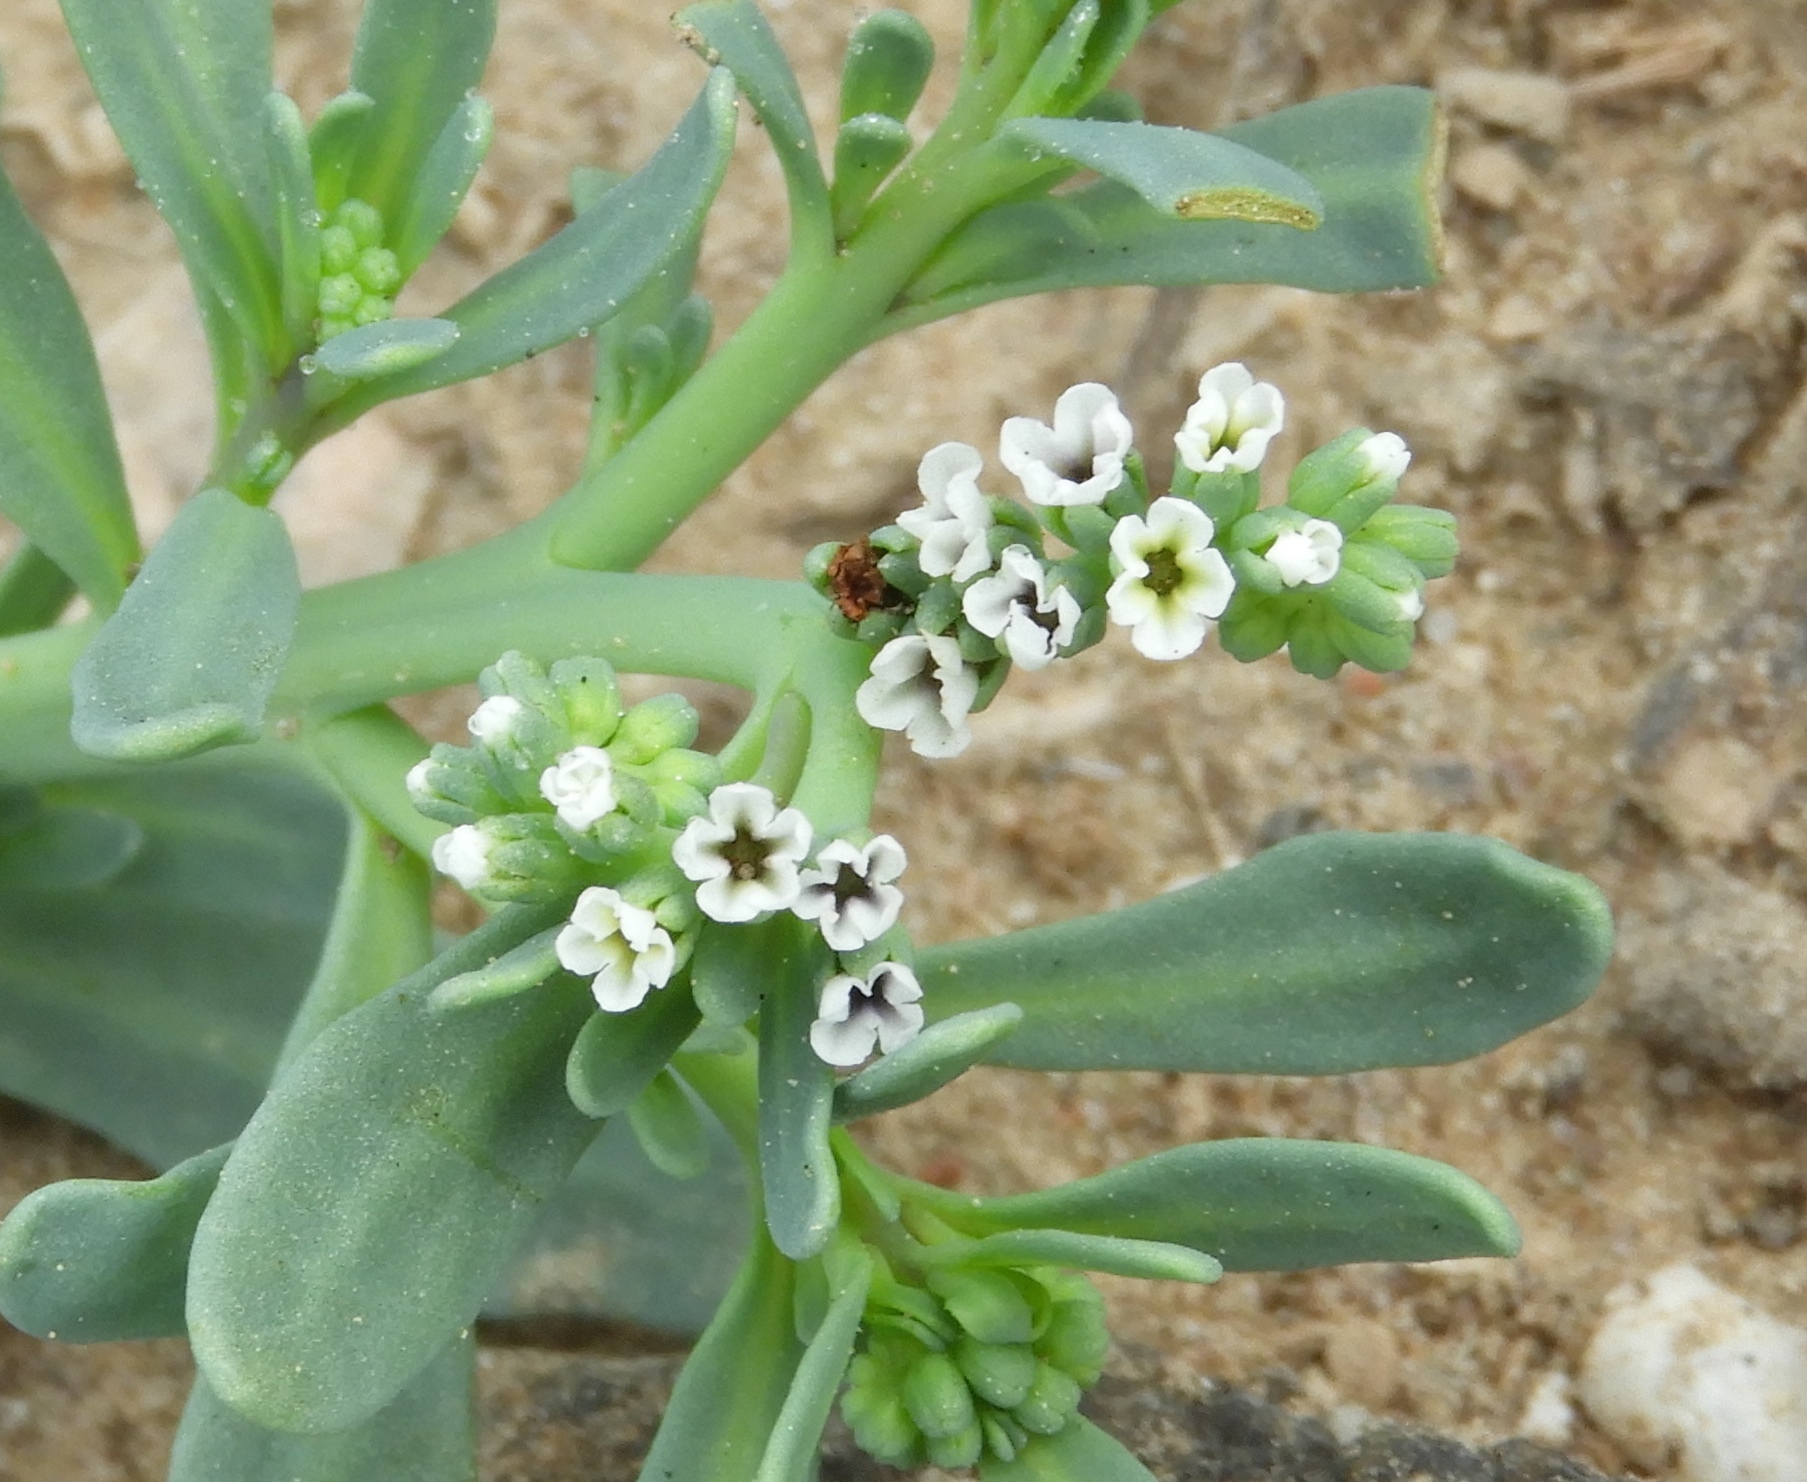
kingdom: Plantae
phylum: Tracheophyta
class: Magnoliopsida
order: Boraginales
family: Heliotropiaceae
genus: Heliotropium
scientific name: Heliotropium curassavicum
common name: Seaside heliotrope
